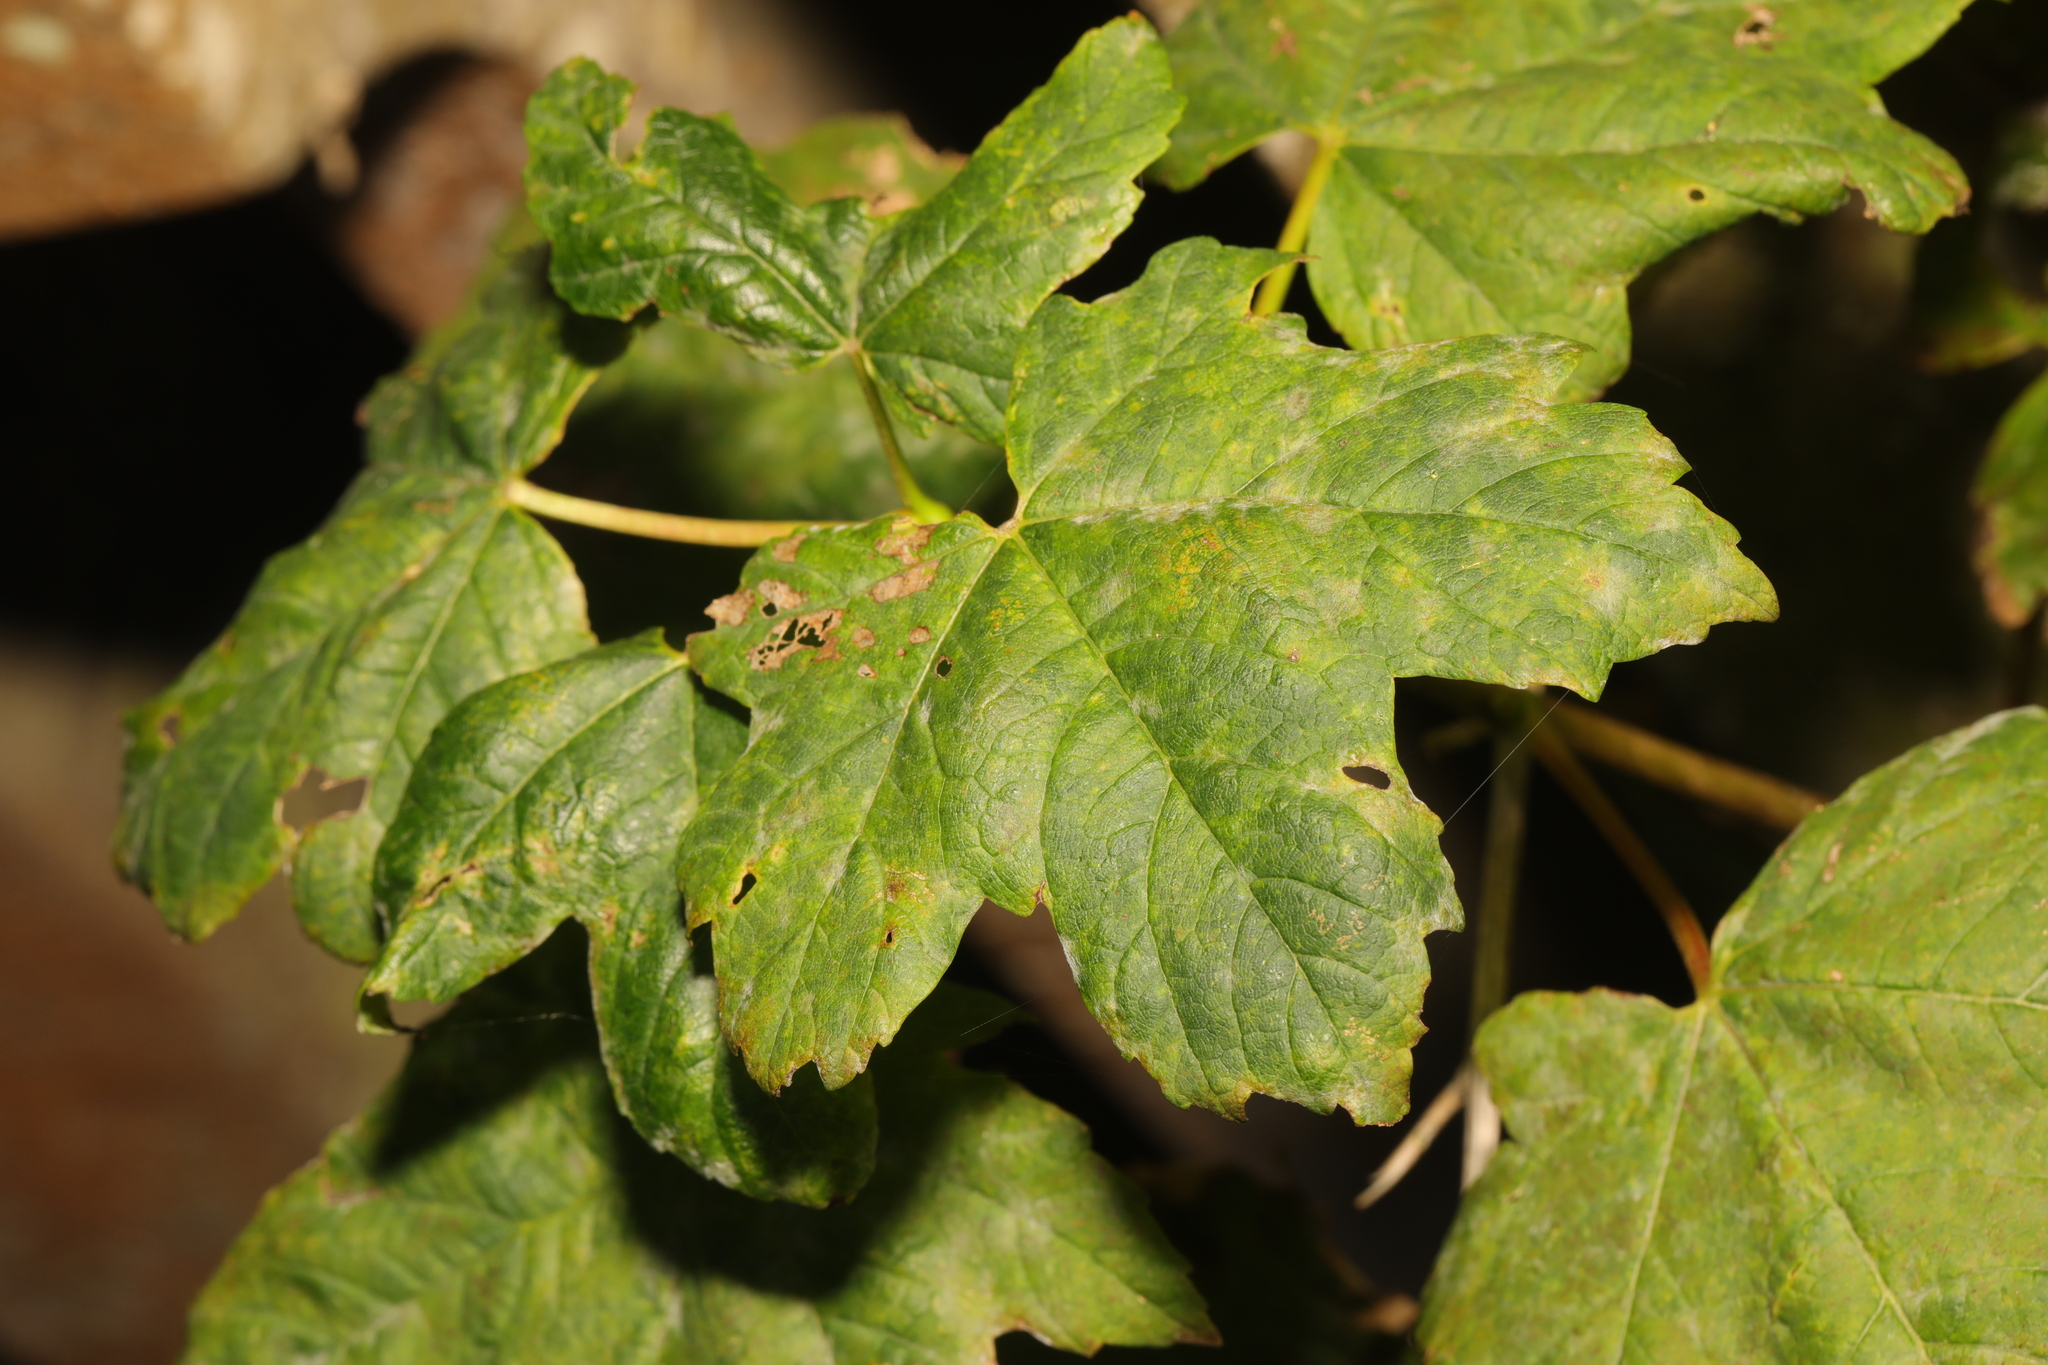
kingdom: Plantae
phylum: Tracheophyta
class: Magnoliopsida
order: Sapindales
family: Sapindaceae
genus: Acer
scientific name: Acer pseudoplatanus
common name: Sycamore
